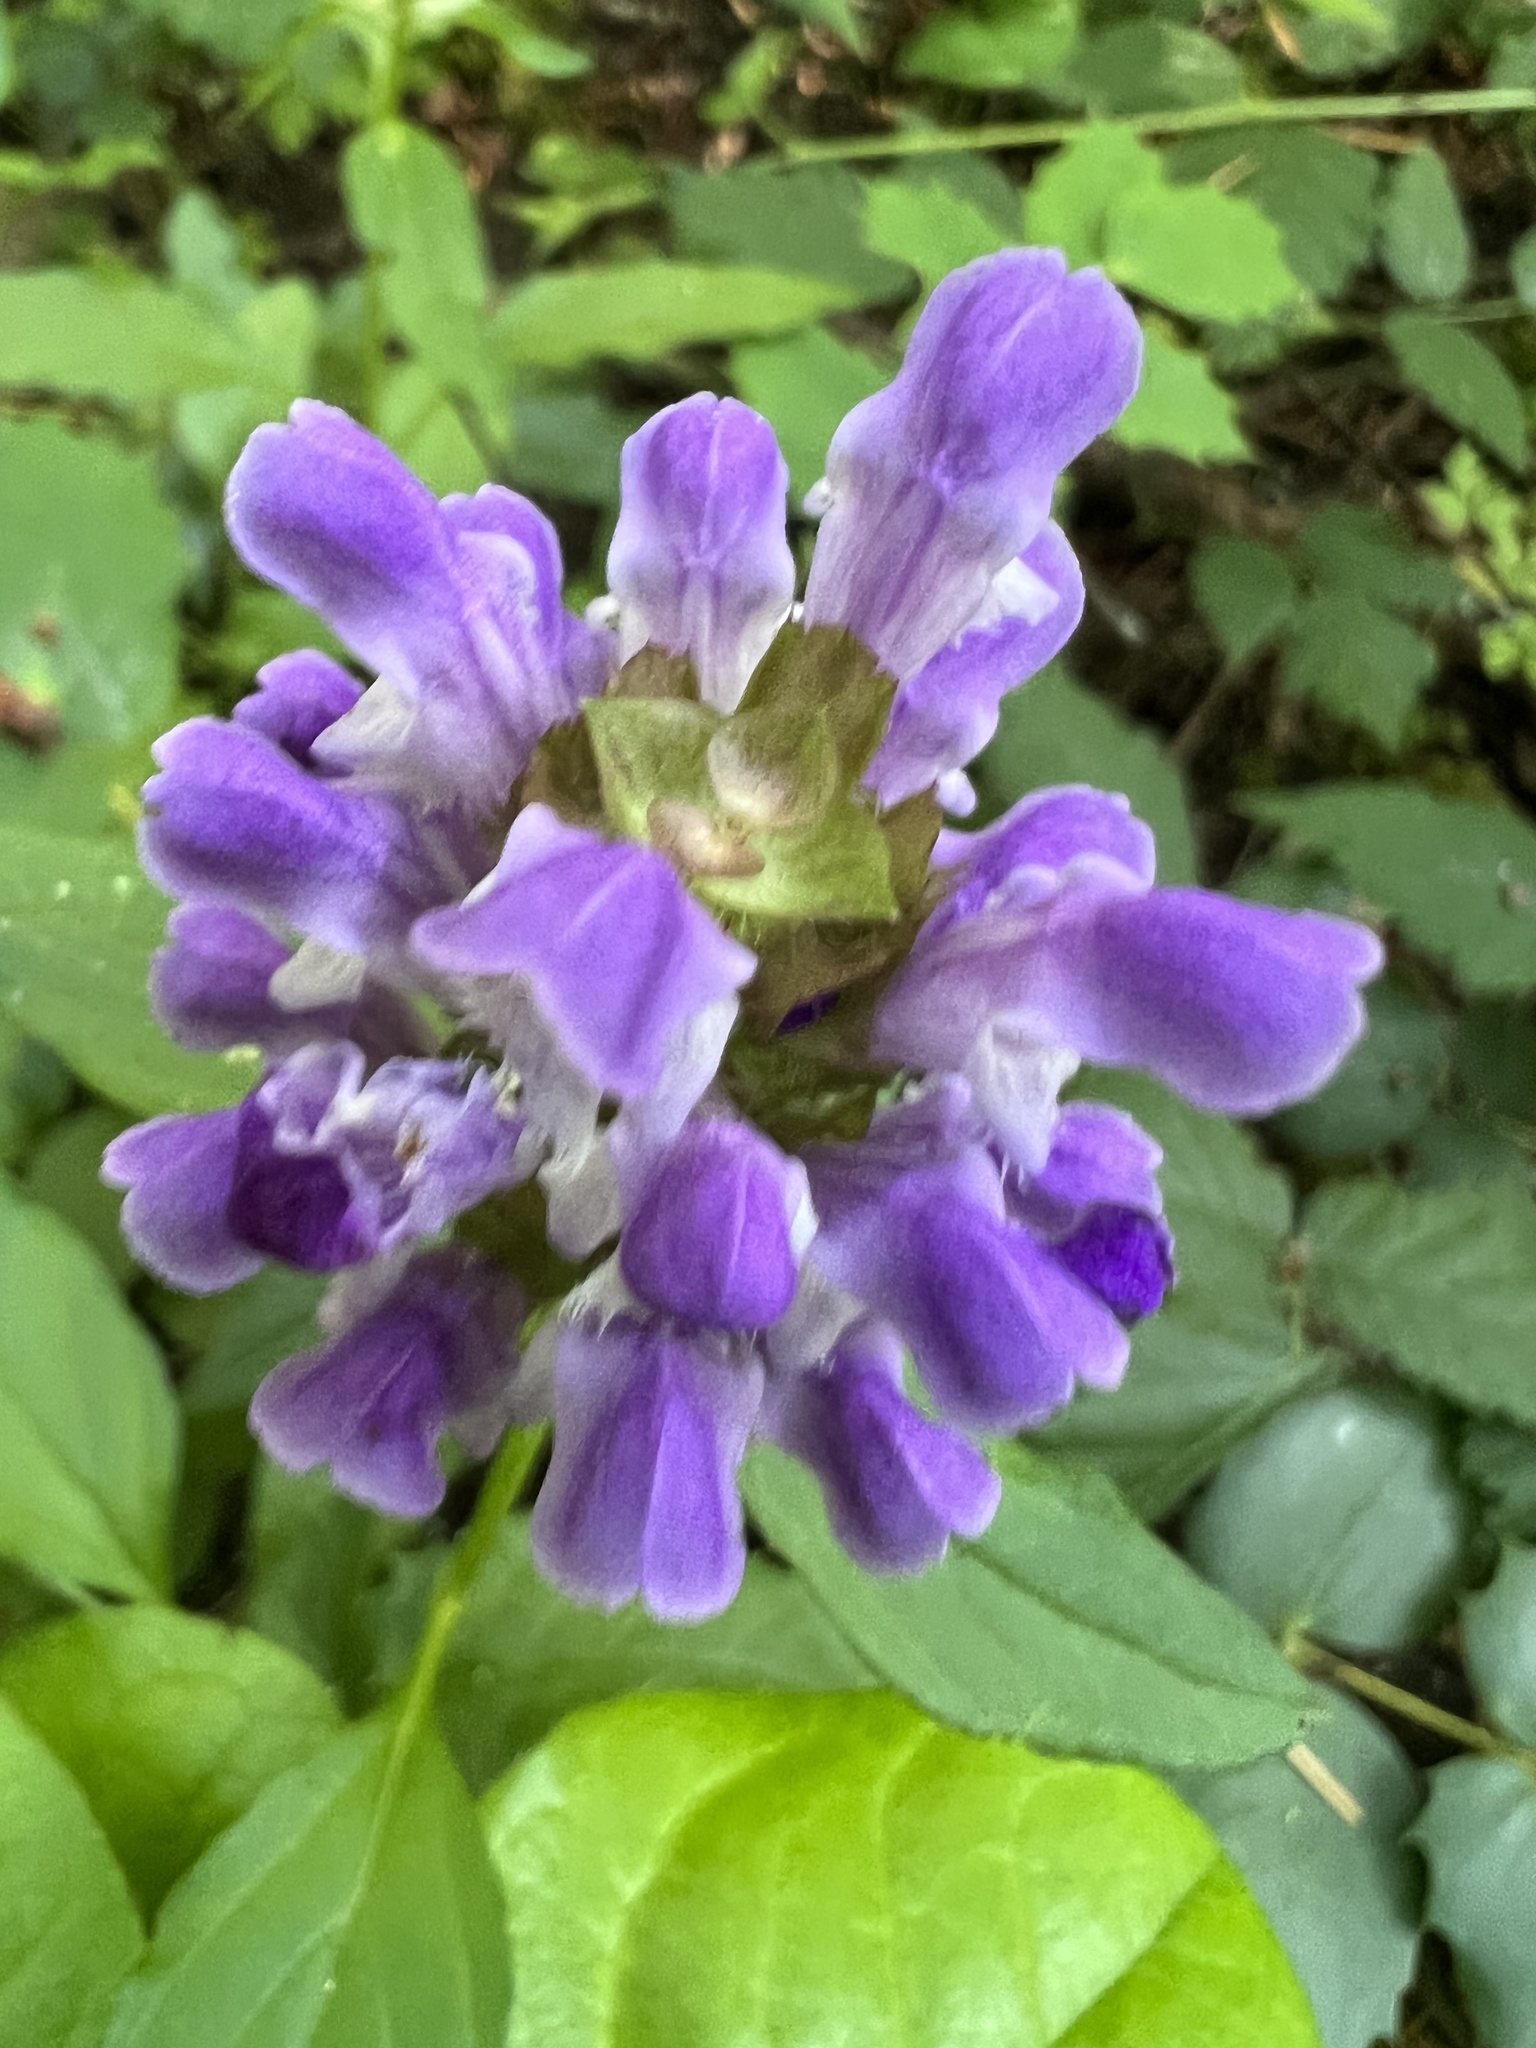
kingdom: Plantae
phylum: Tracheophyta
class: Magnoliopsida
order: Lamiales
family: Lamiaceae
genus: Prunella
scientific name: Prunella vulgaris
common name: Heal-all
